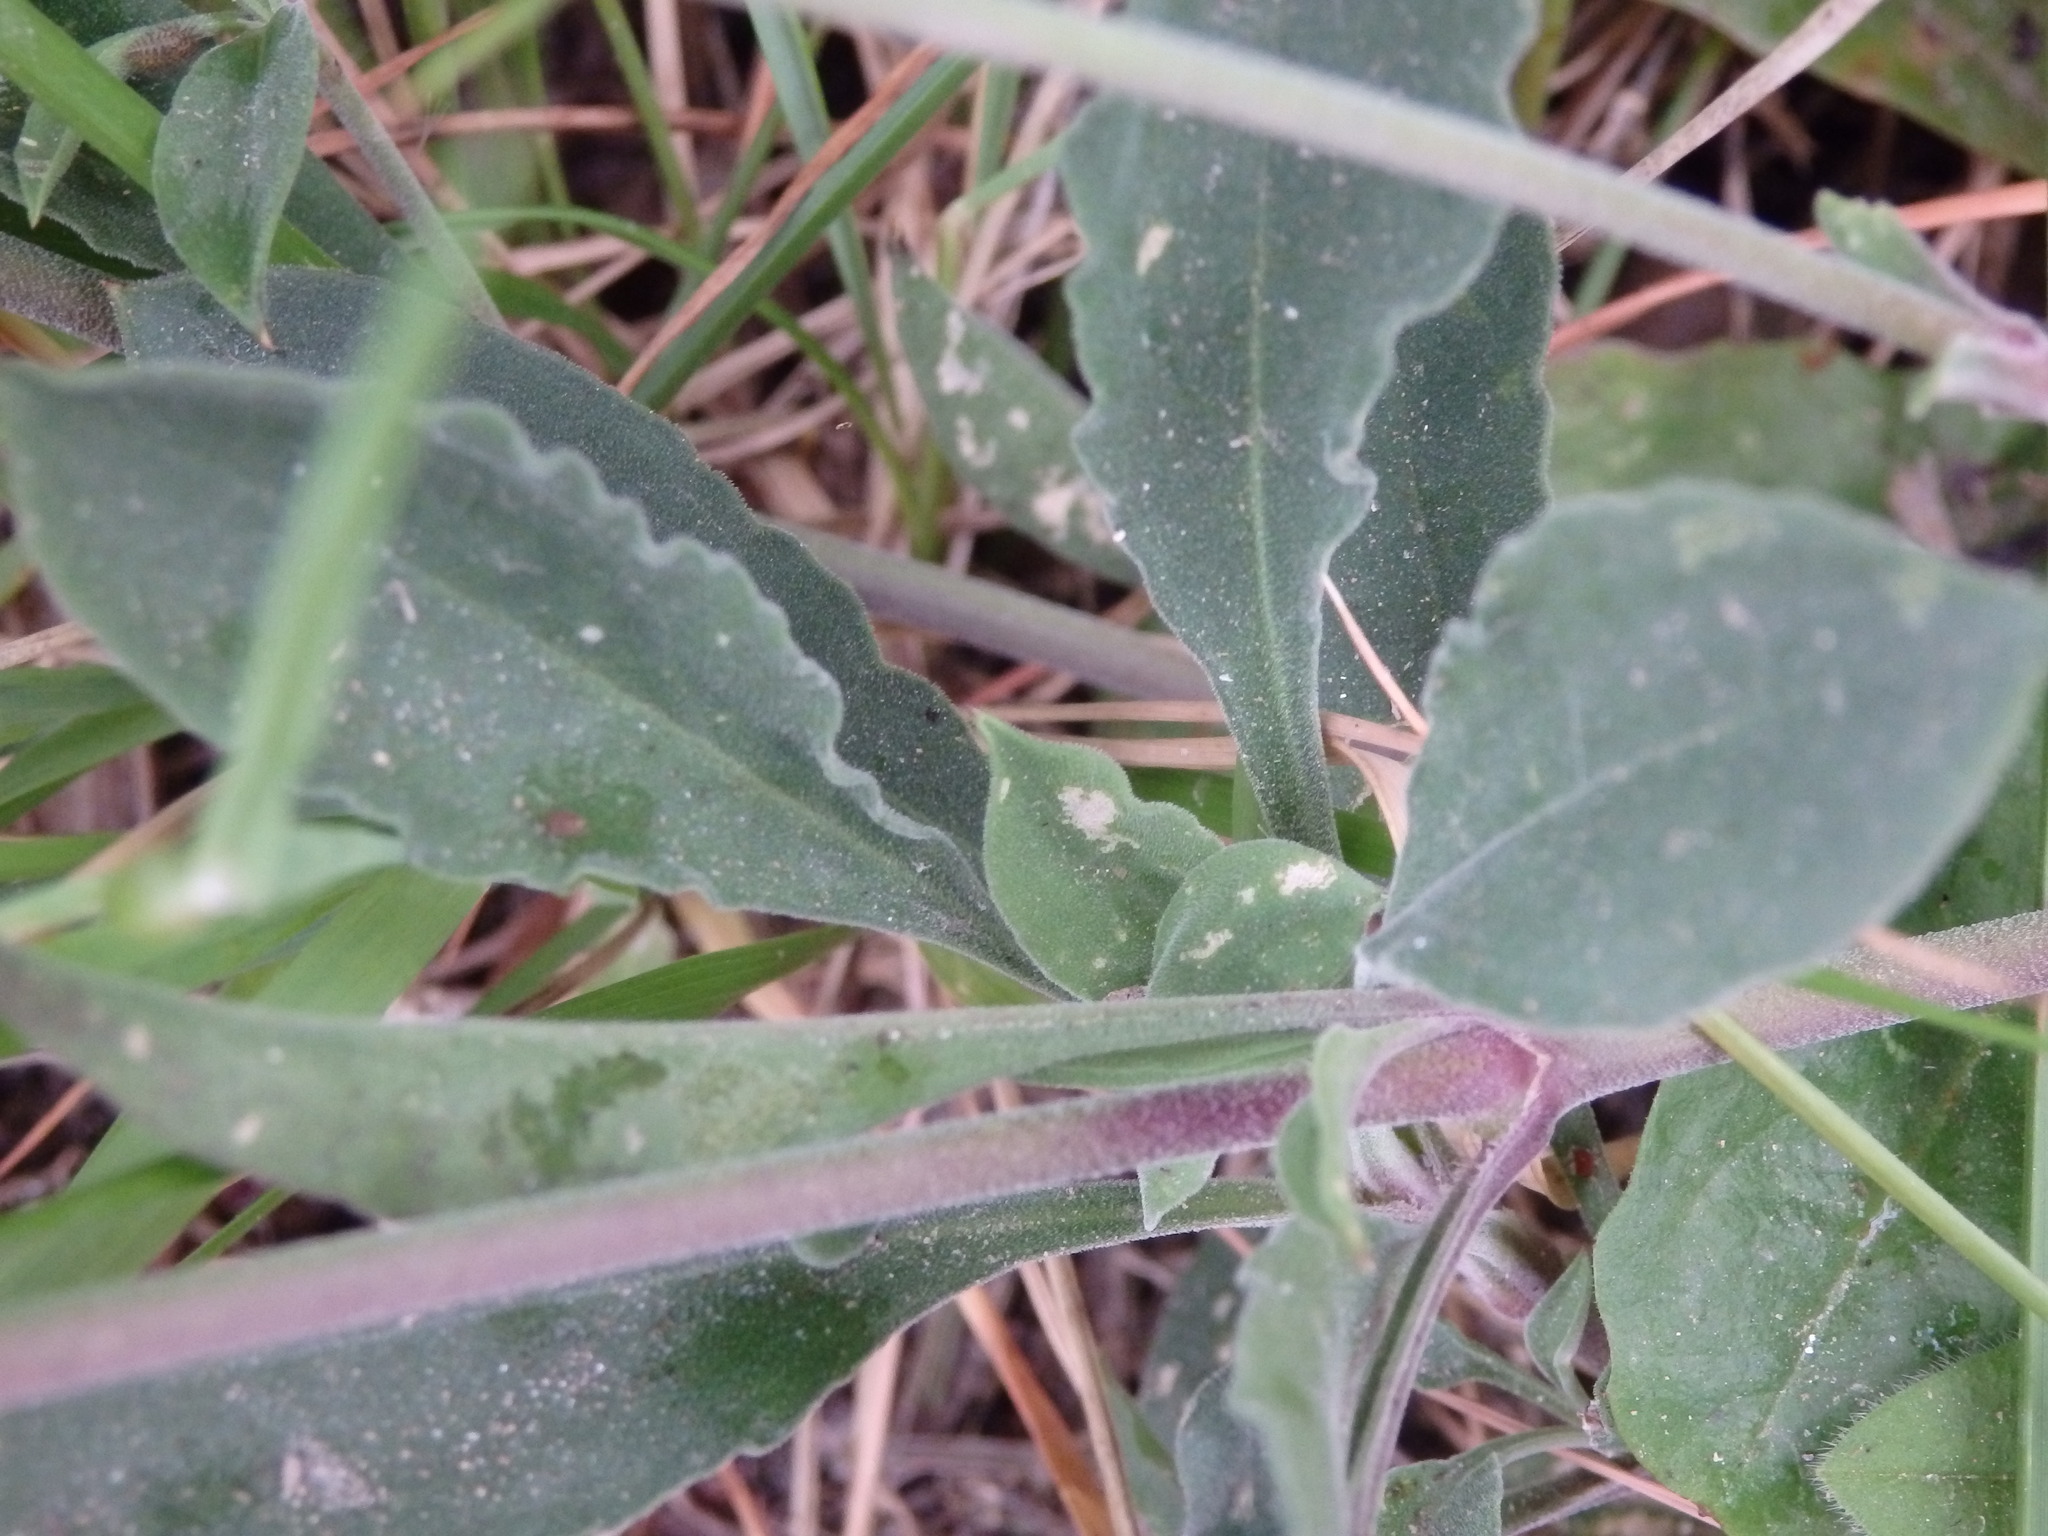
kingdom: Plantae
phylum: Tracheophyta
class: Magnoliopsida
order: Caryophyllales
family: Caryophyllaceae
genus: Silene
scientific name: Silene nutans
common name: Nottingham catchfly
